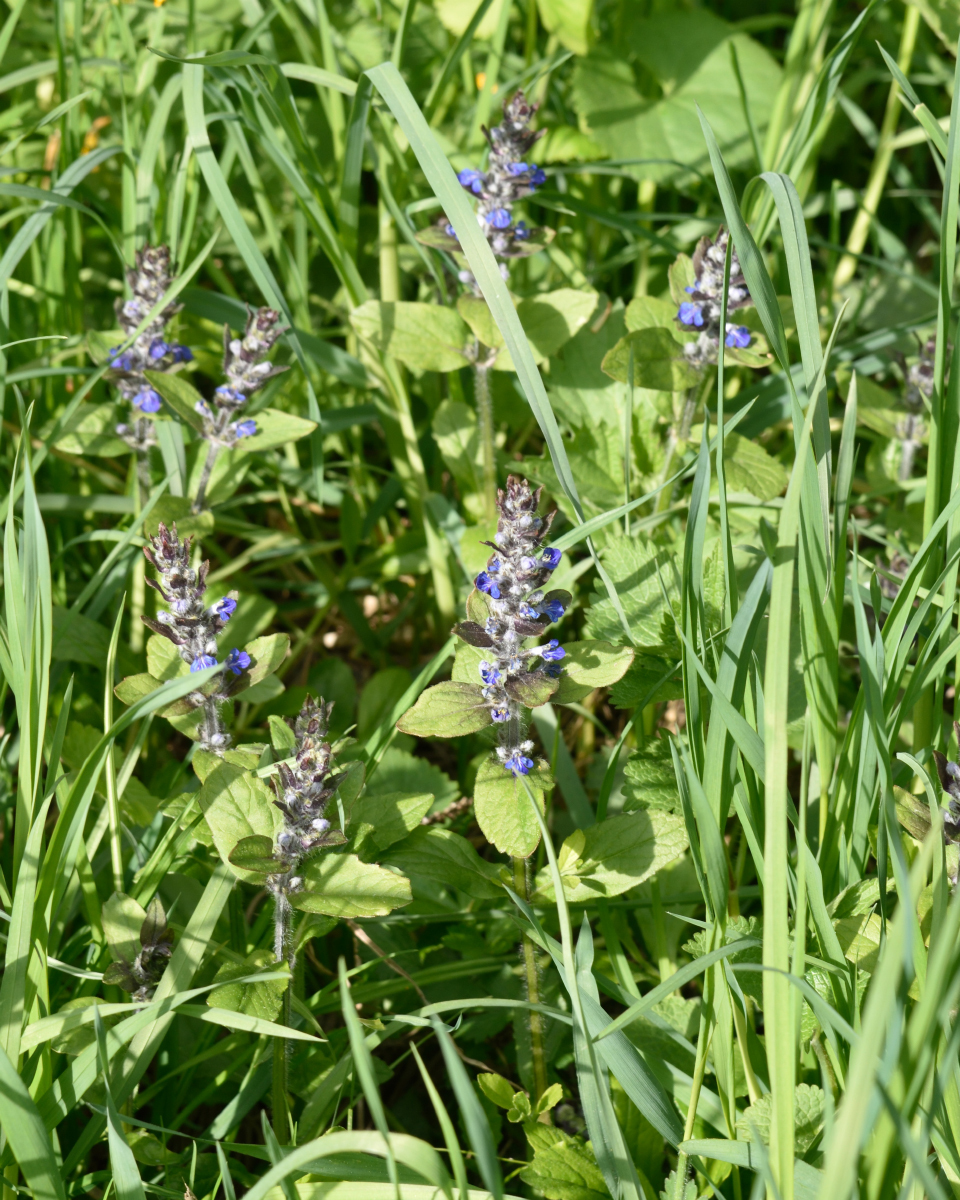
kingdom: Plantae
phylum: Tracheophyta
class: Magnoliopsida
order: Lamiales
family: Lamiaceae
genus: Ajuga
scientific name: Ajuga reptans
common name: Bugle
